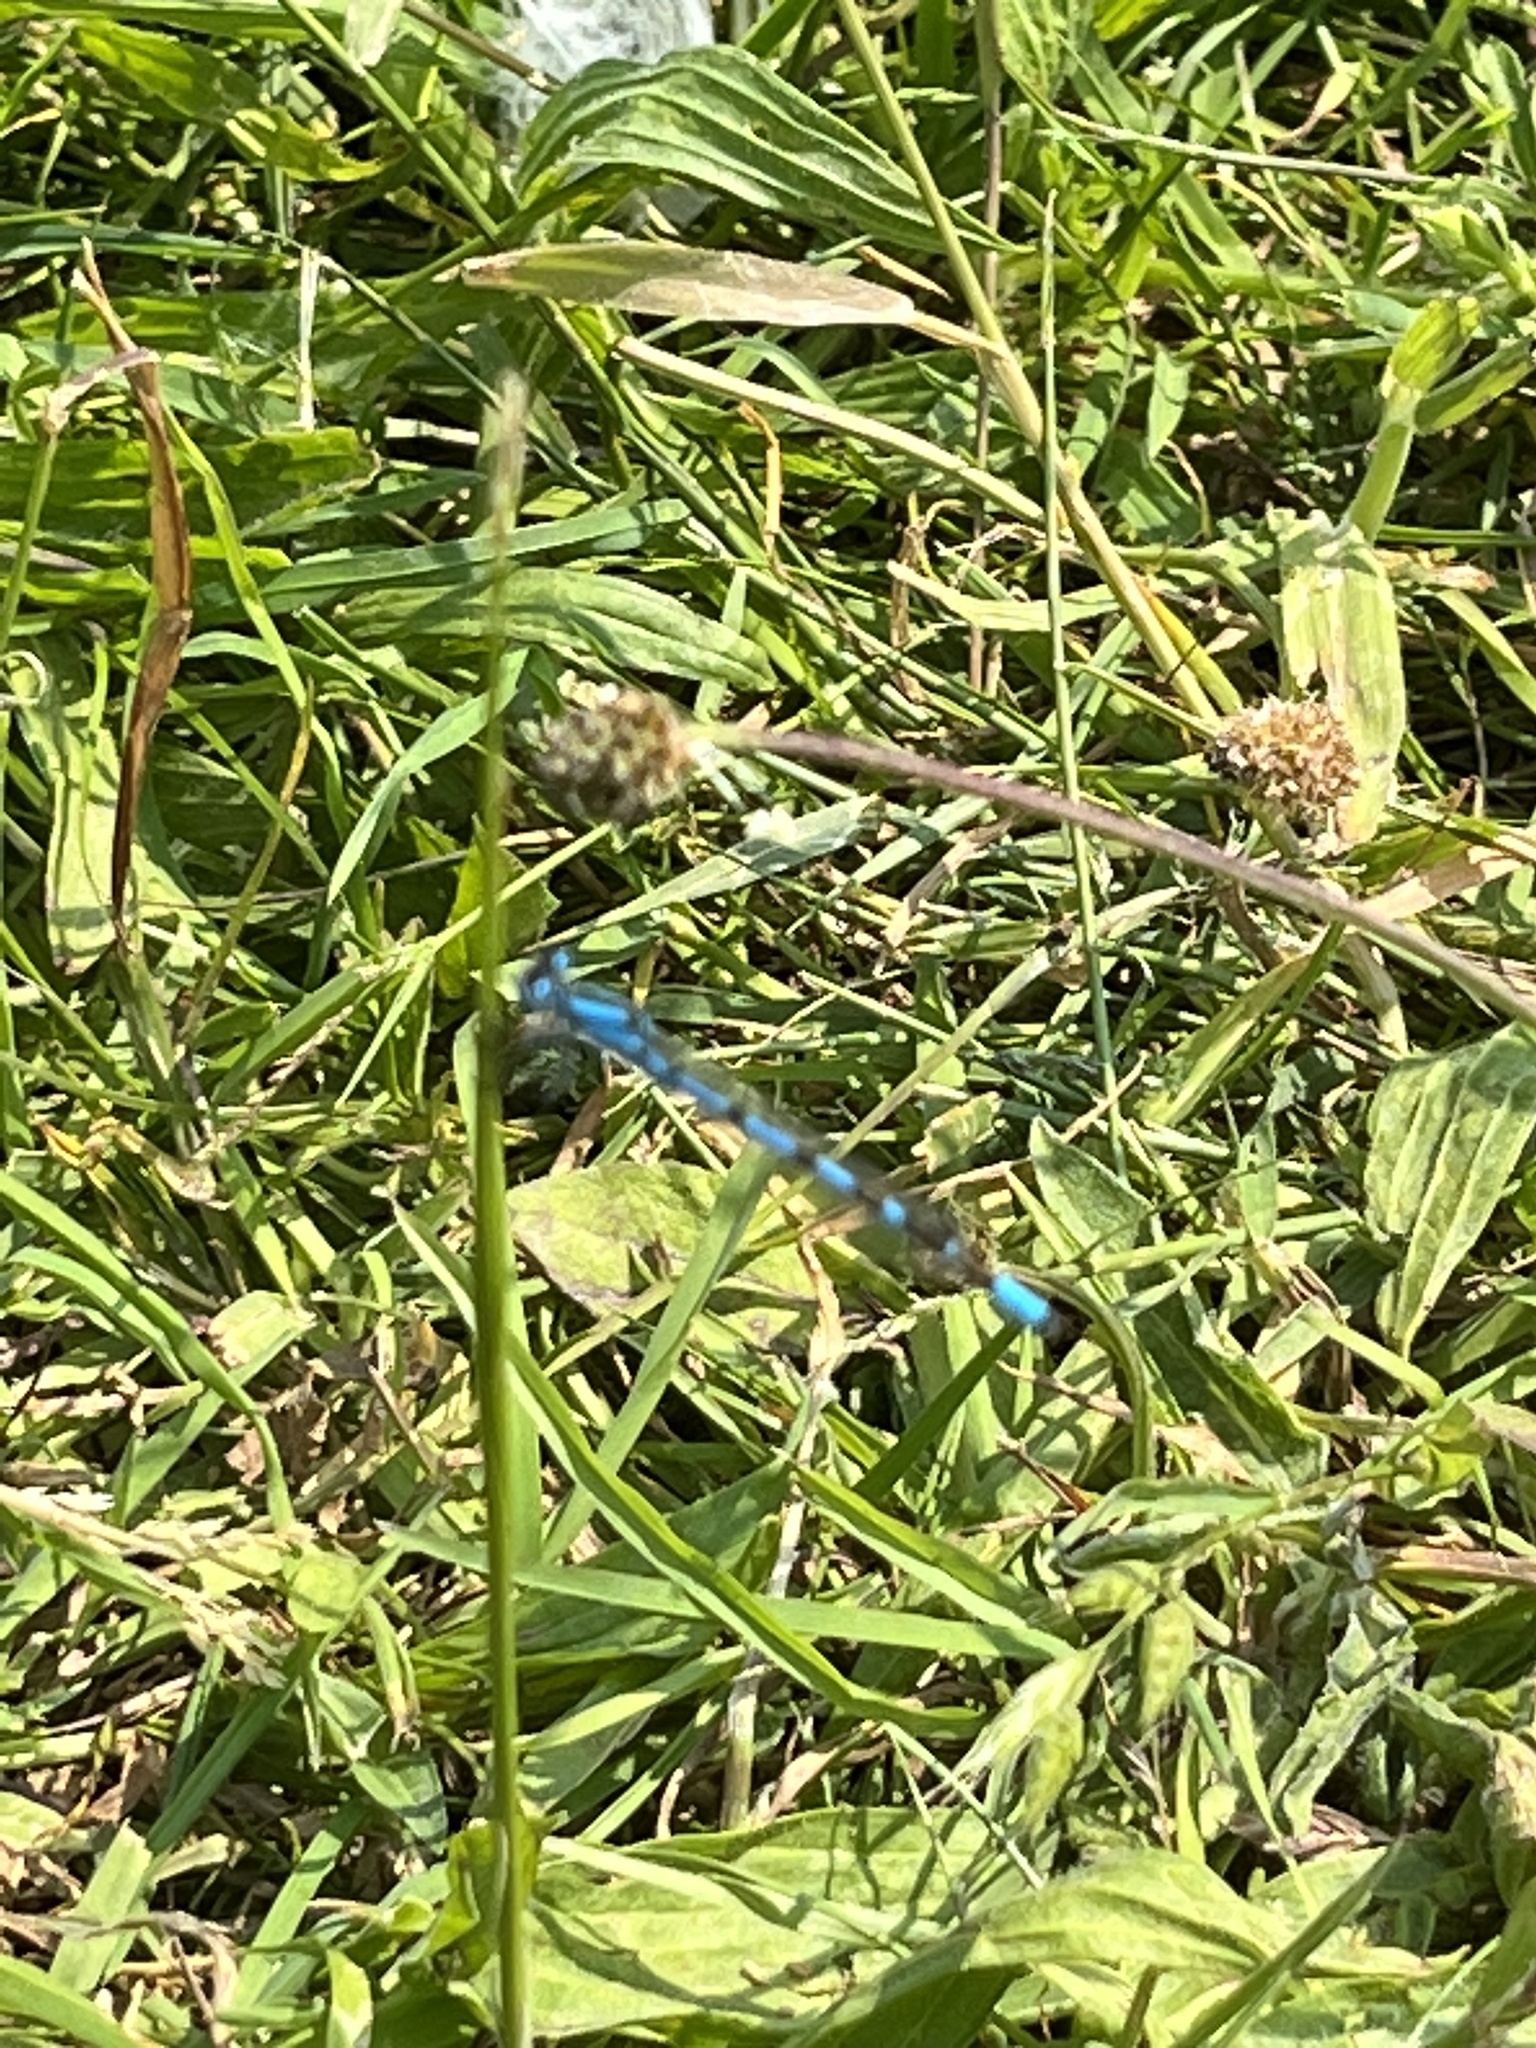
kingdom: Animalia
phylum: Arthropoda
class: Insecta
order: Odonata
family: Coenagrionidae
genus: Enallagma
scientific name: Enallagma cyathigerum
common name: Common blue damselfly
